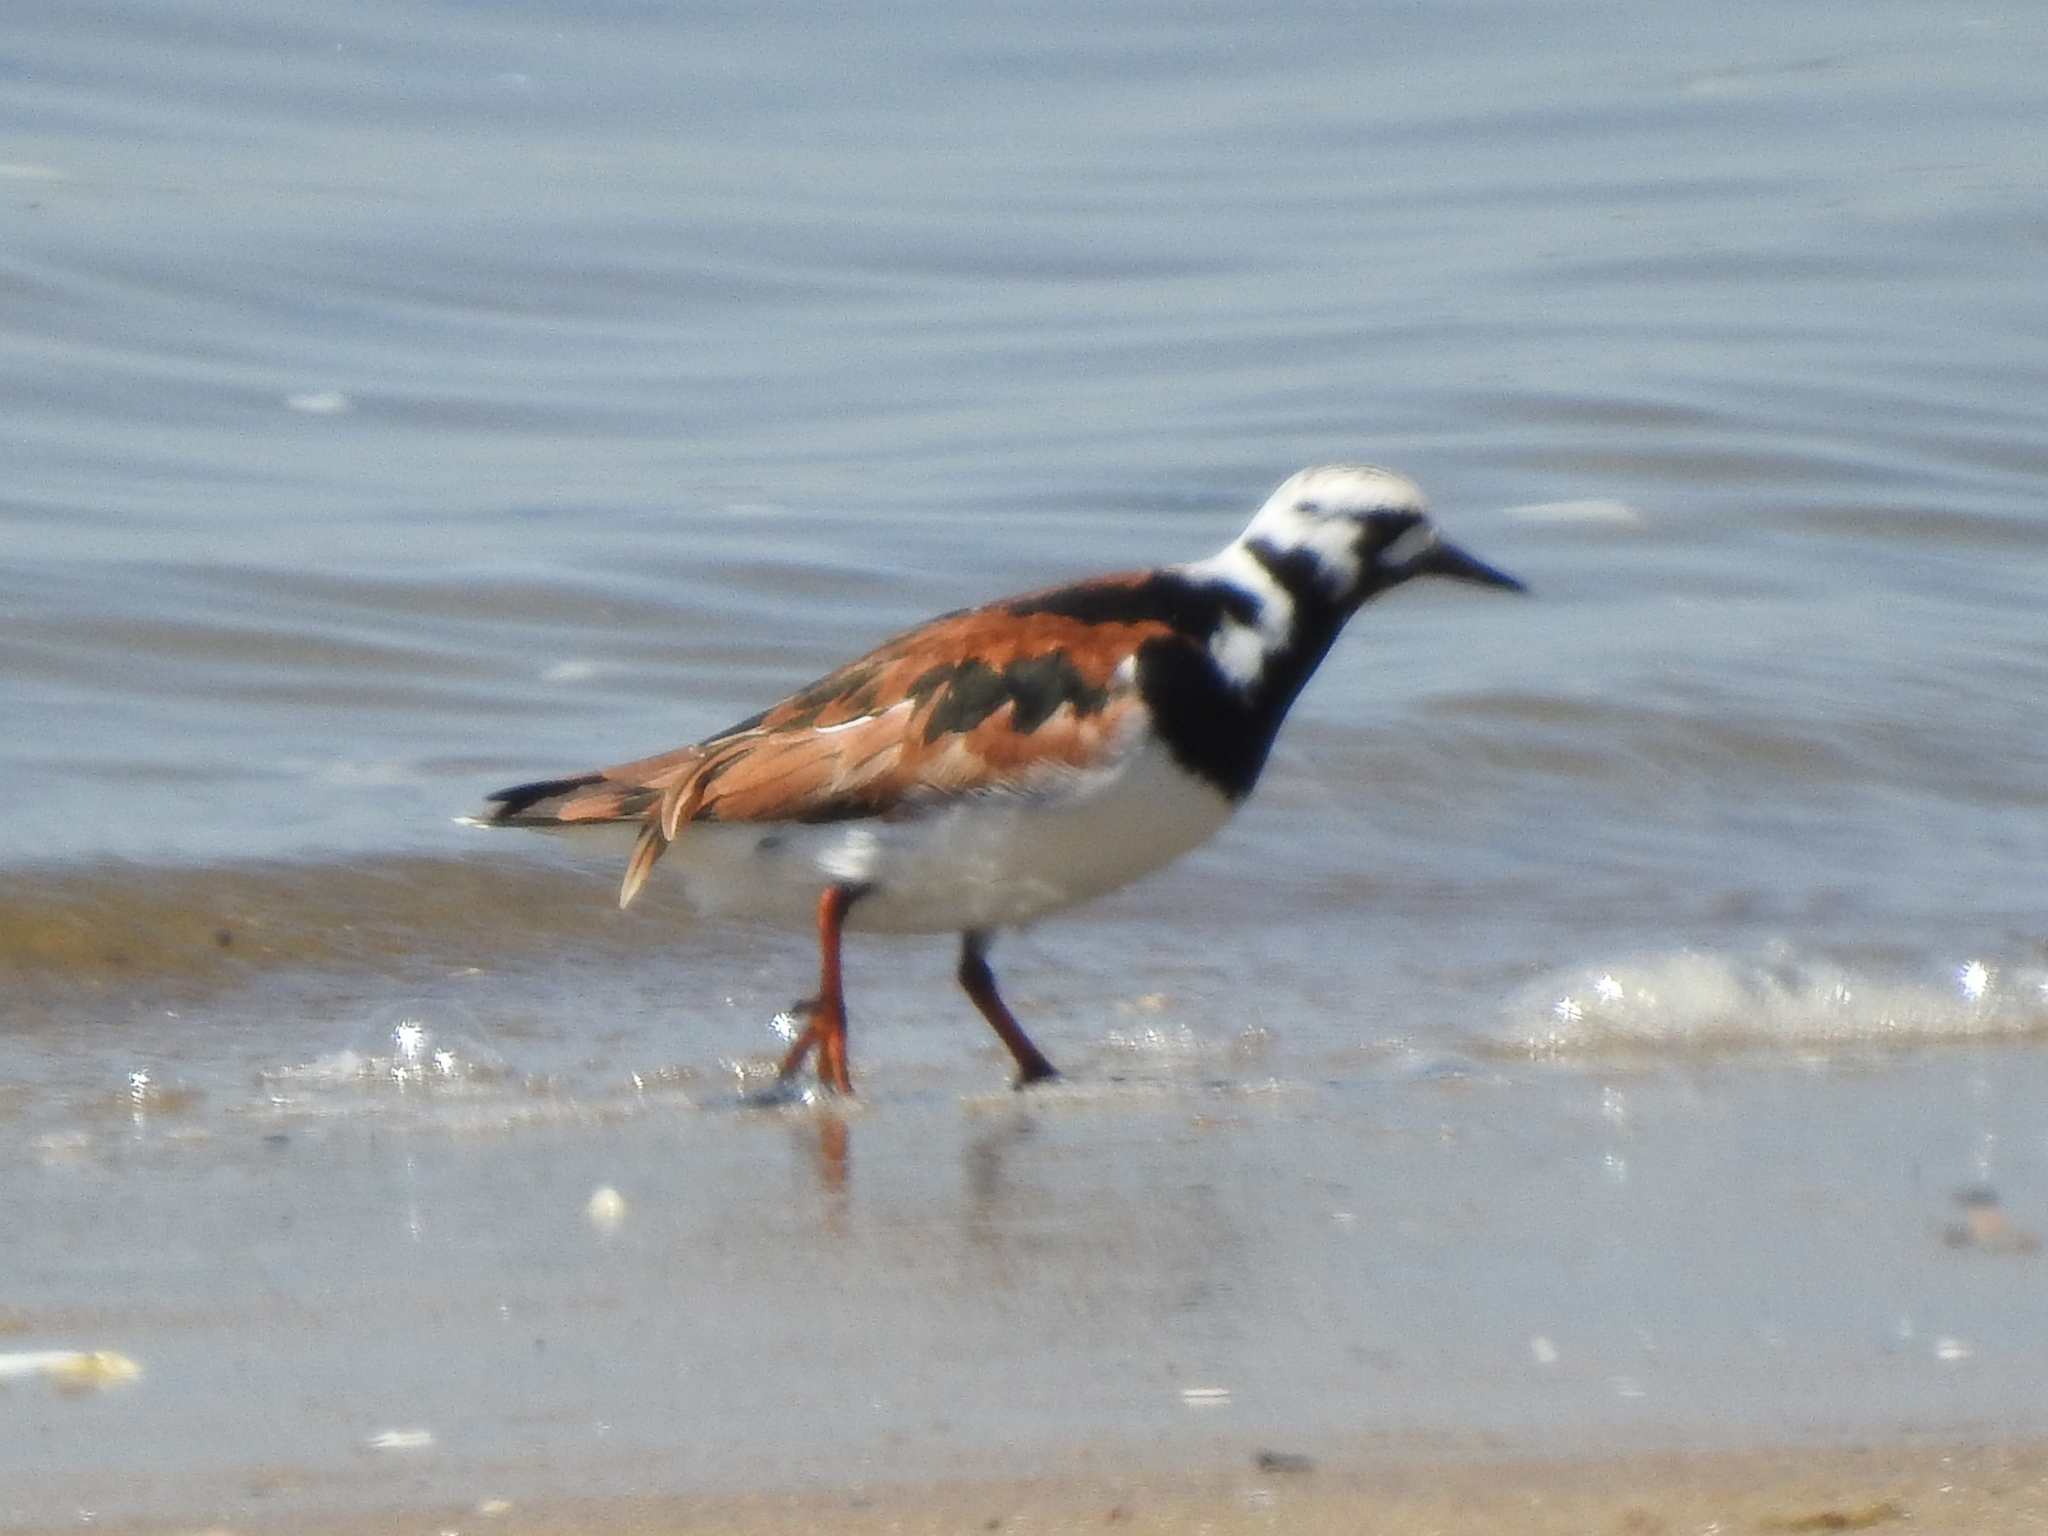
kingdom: Animalia
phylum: Chordata
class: Aves
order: Charadriiformes
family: Scolopacidae
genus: Arenaria
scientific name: Arenaria interpres
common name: Ruddy turnstone
